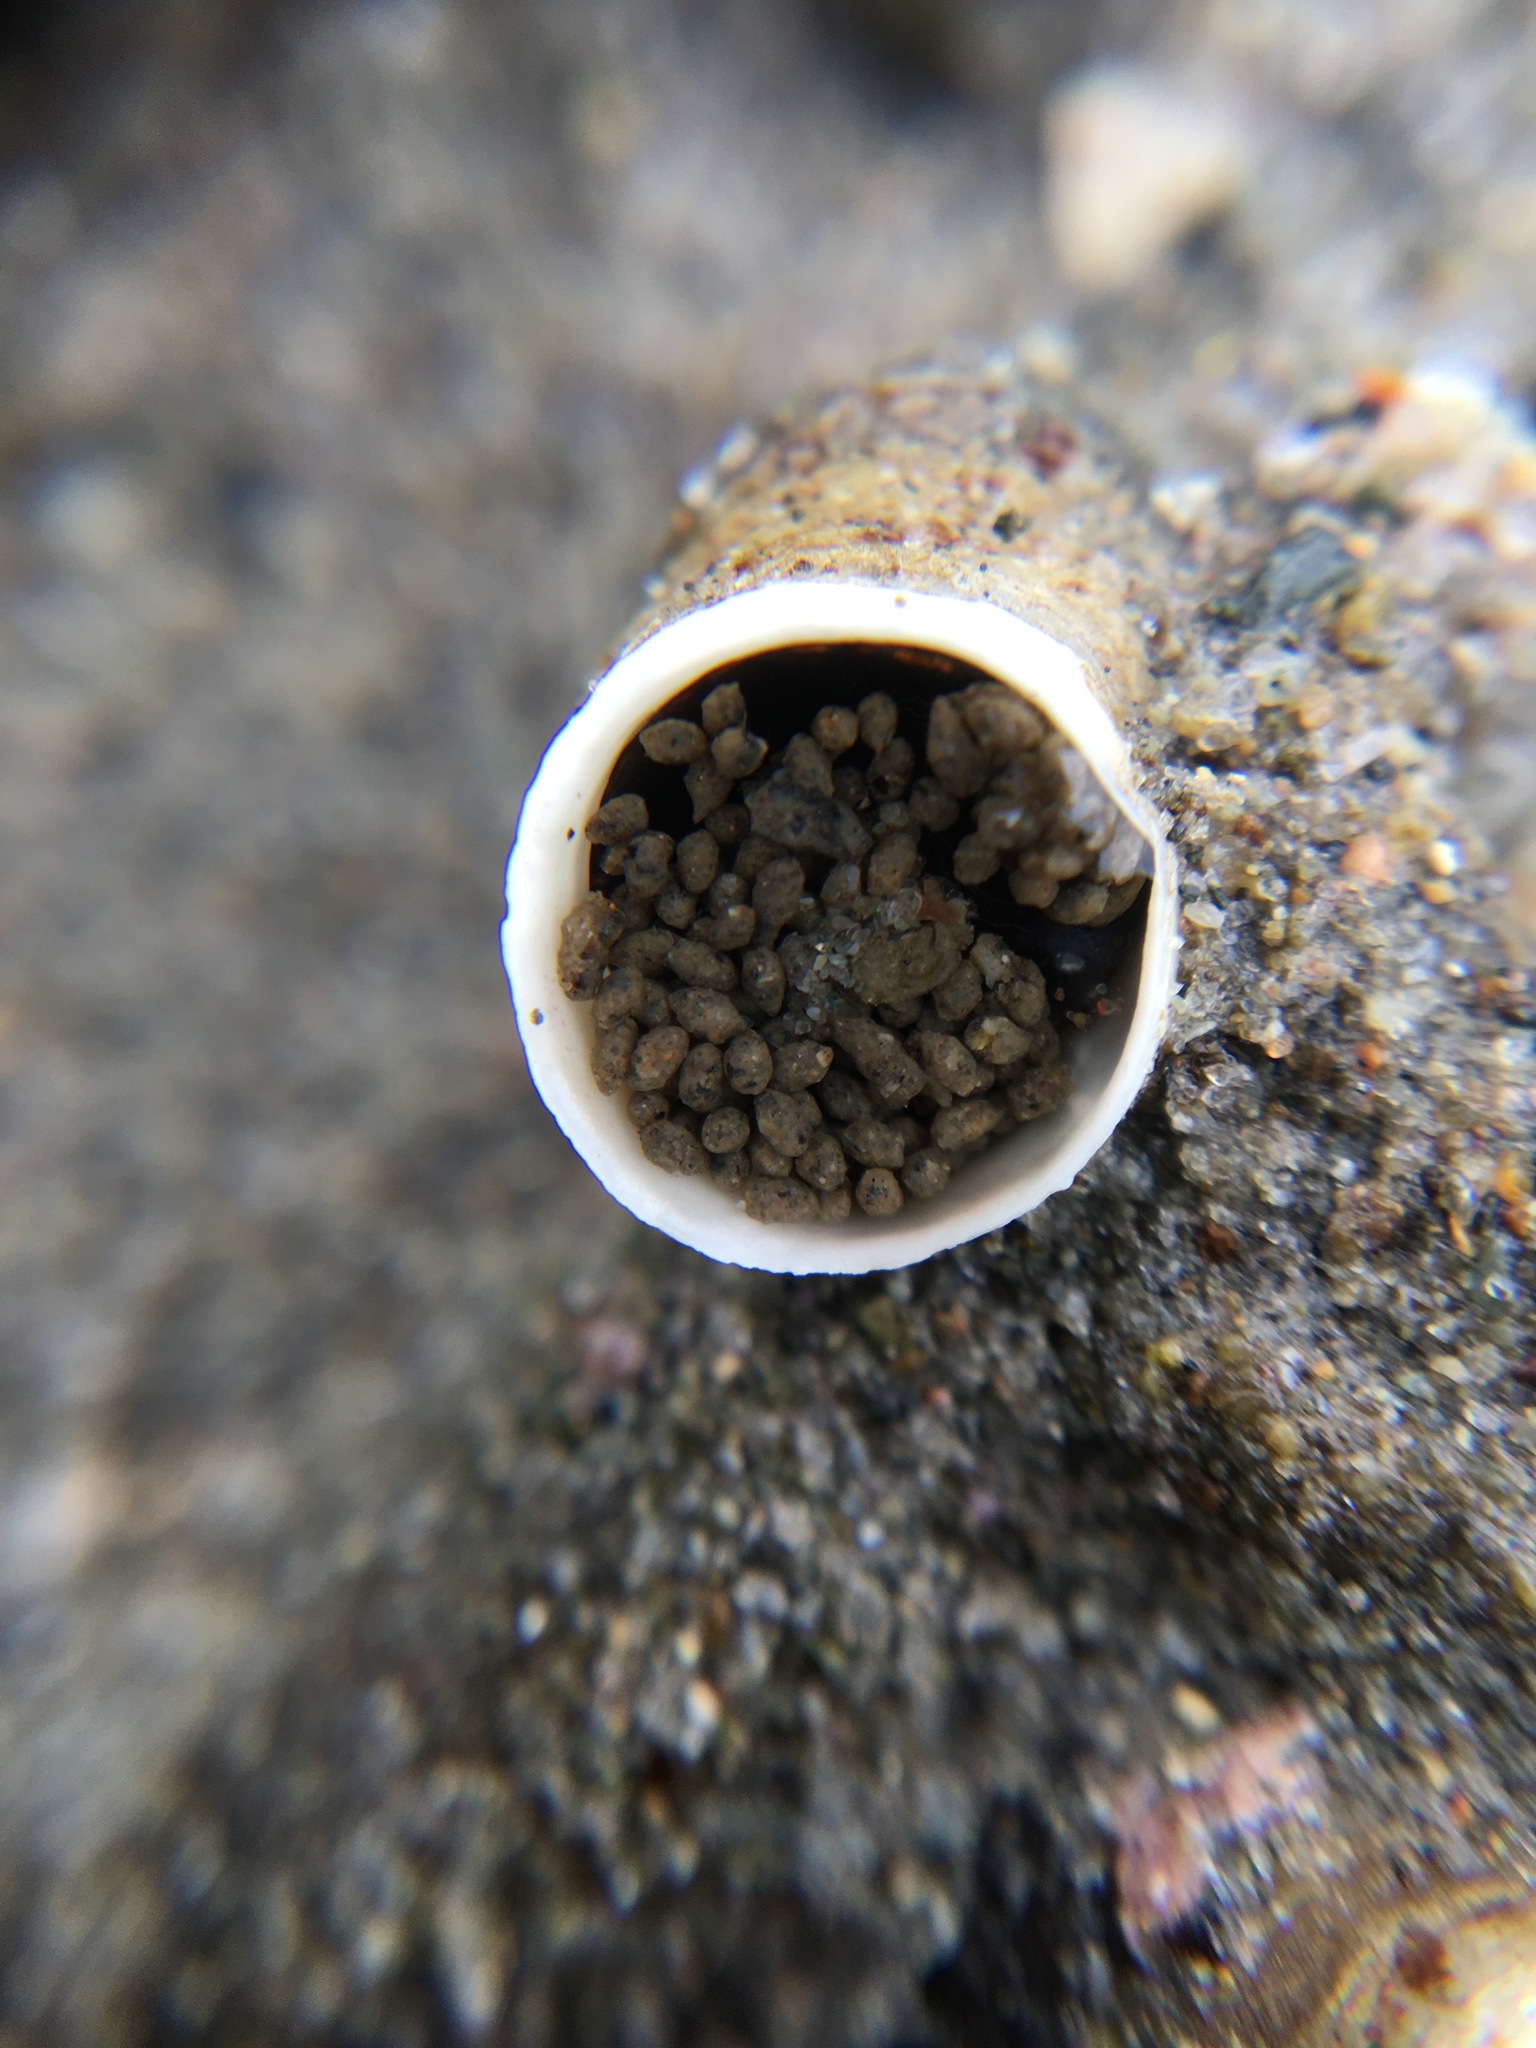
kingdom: Animalia
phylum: Mollusca
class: Gastropoda
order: Littorinimorpha
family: Vermetidae
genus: Thylacodes
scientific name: Thylacodes squamigerus
